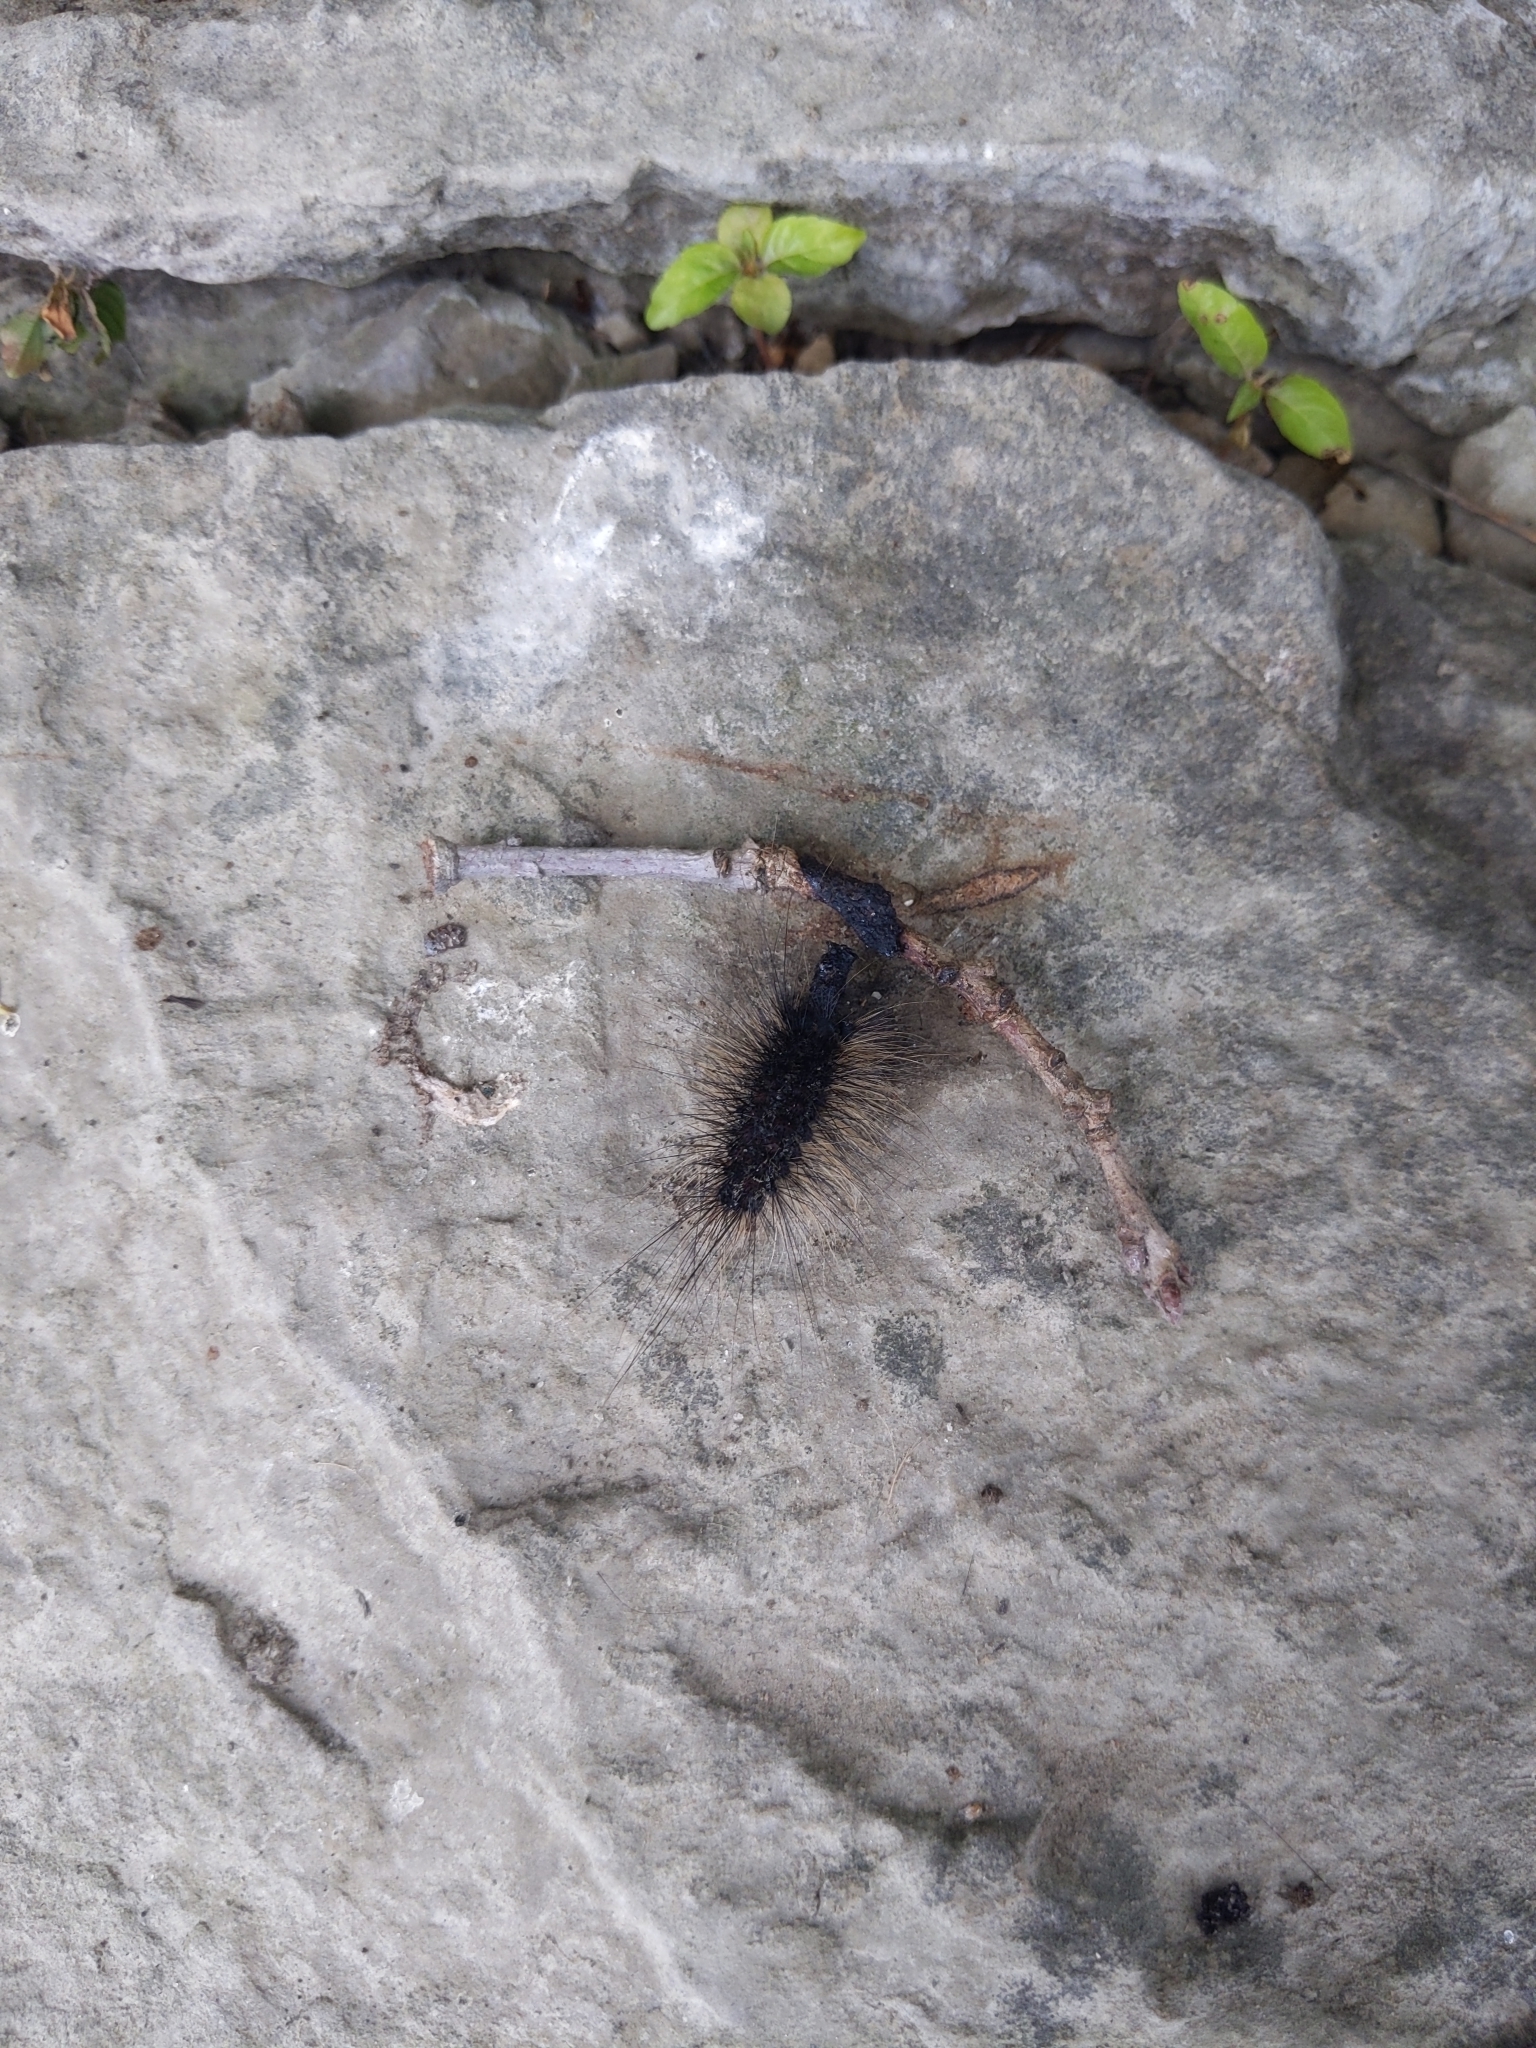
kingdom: Animalia
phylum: Arthropoda
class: Insecta
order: Lepidoptera
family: Erebidae
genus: Lymantria
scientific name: Lymantria dispar
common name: Gypsy moth
